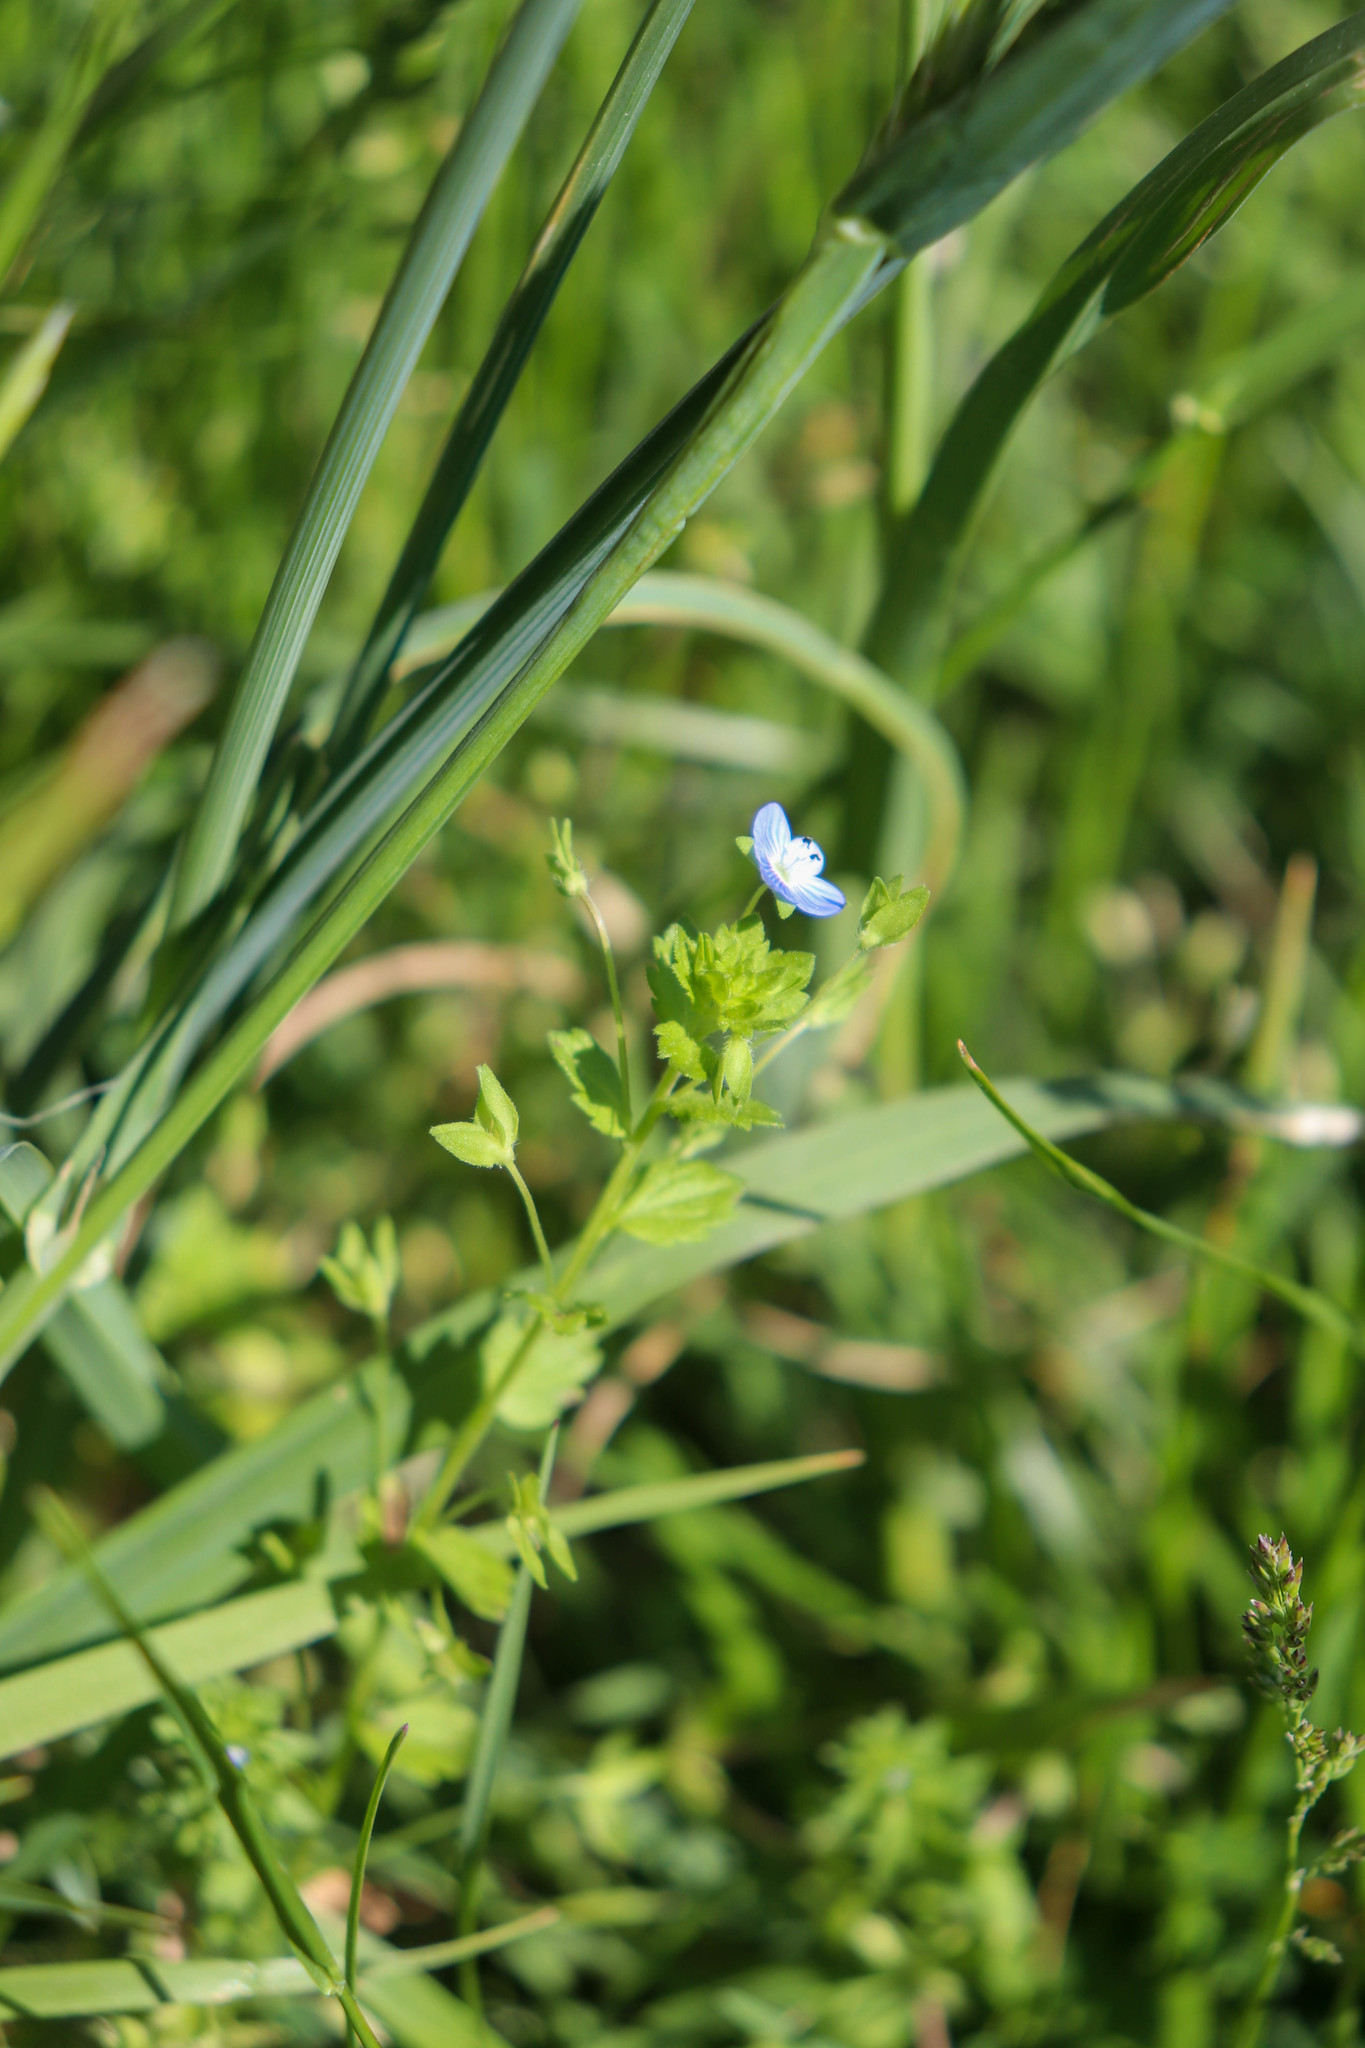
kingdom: Plantae
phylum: Tracheophyta
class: Magnoliopsida
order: Lamiales
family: Plantaginaceae
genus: Veronica
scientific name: Veronica persica
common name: Common field-speedwell
